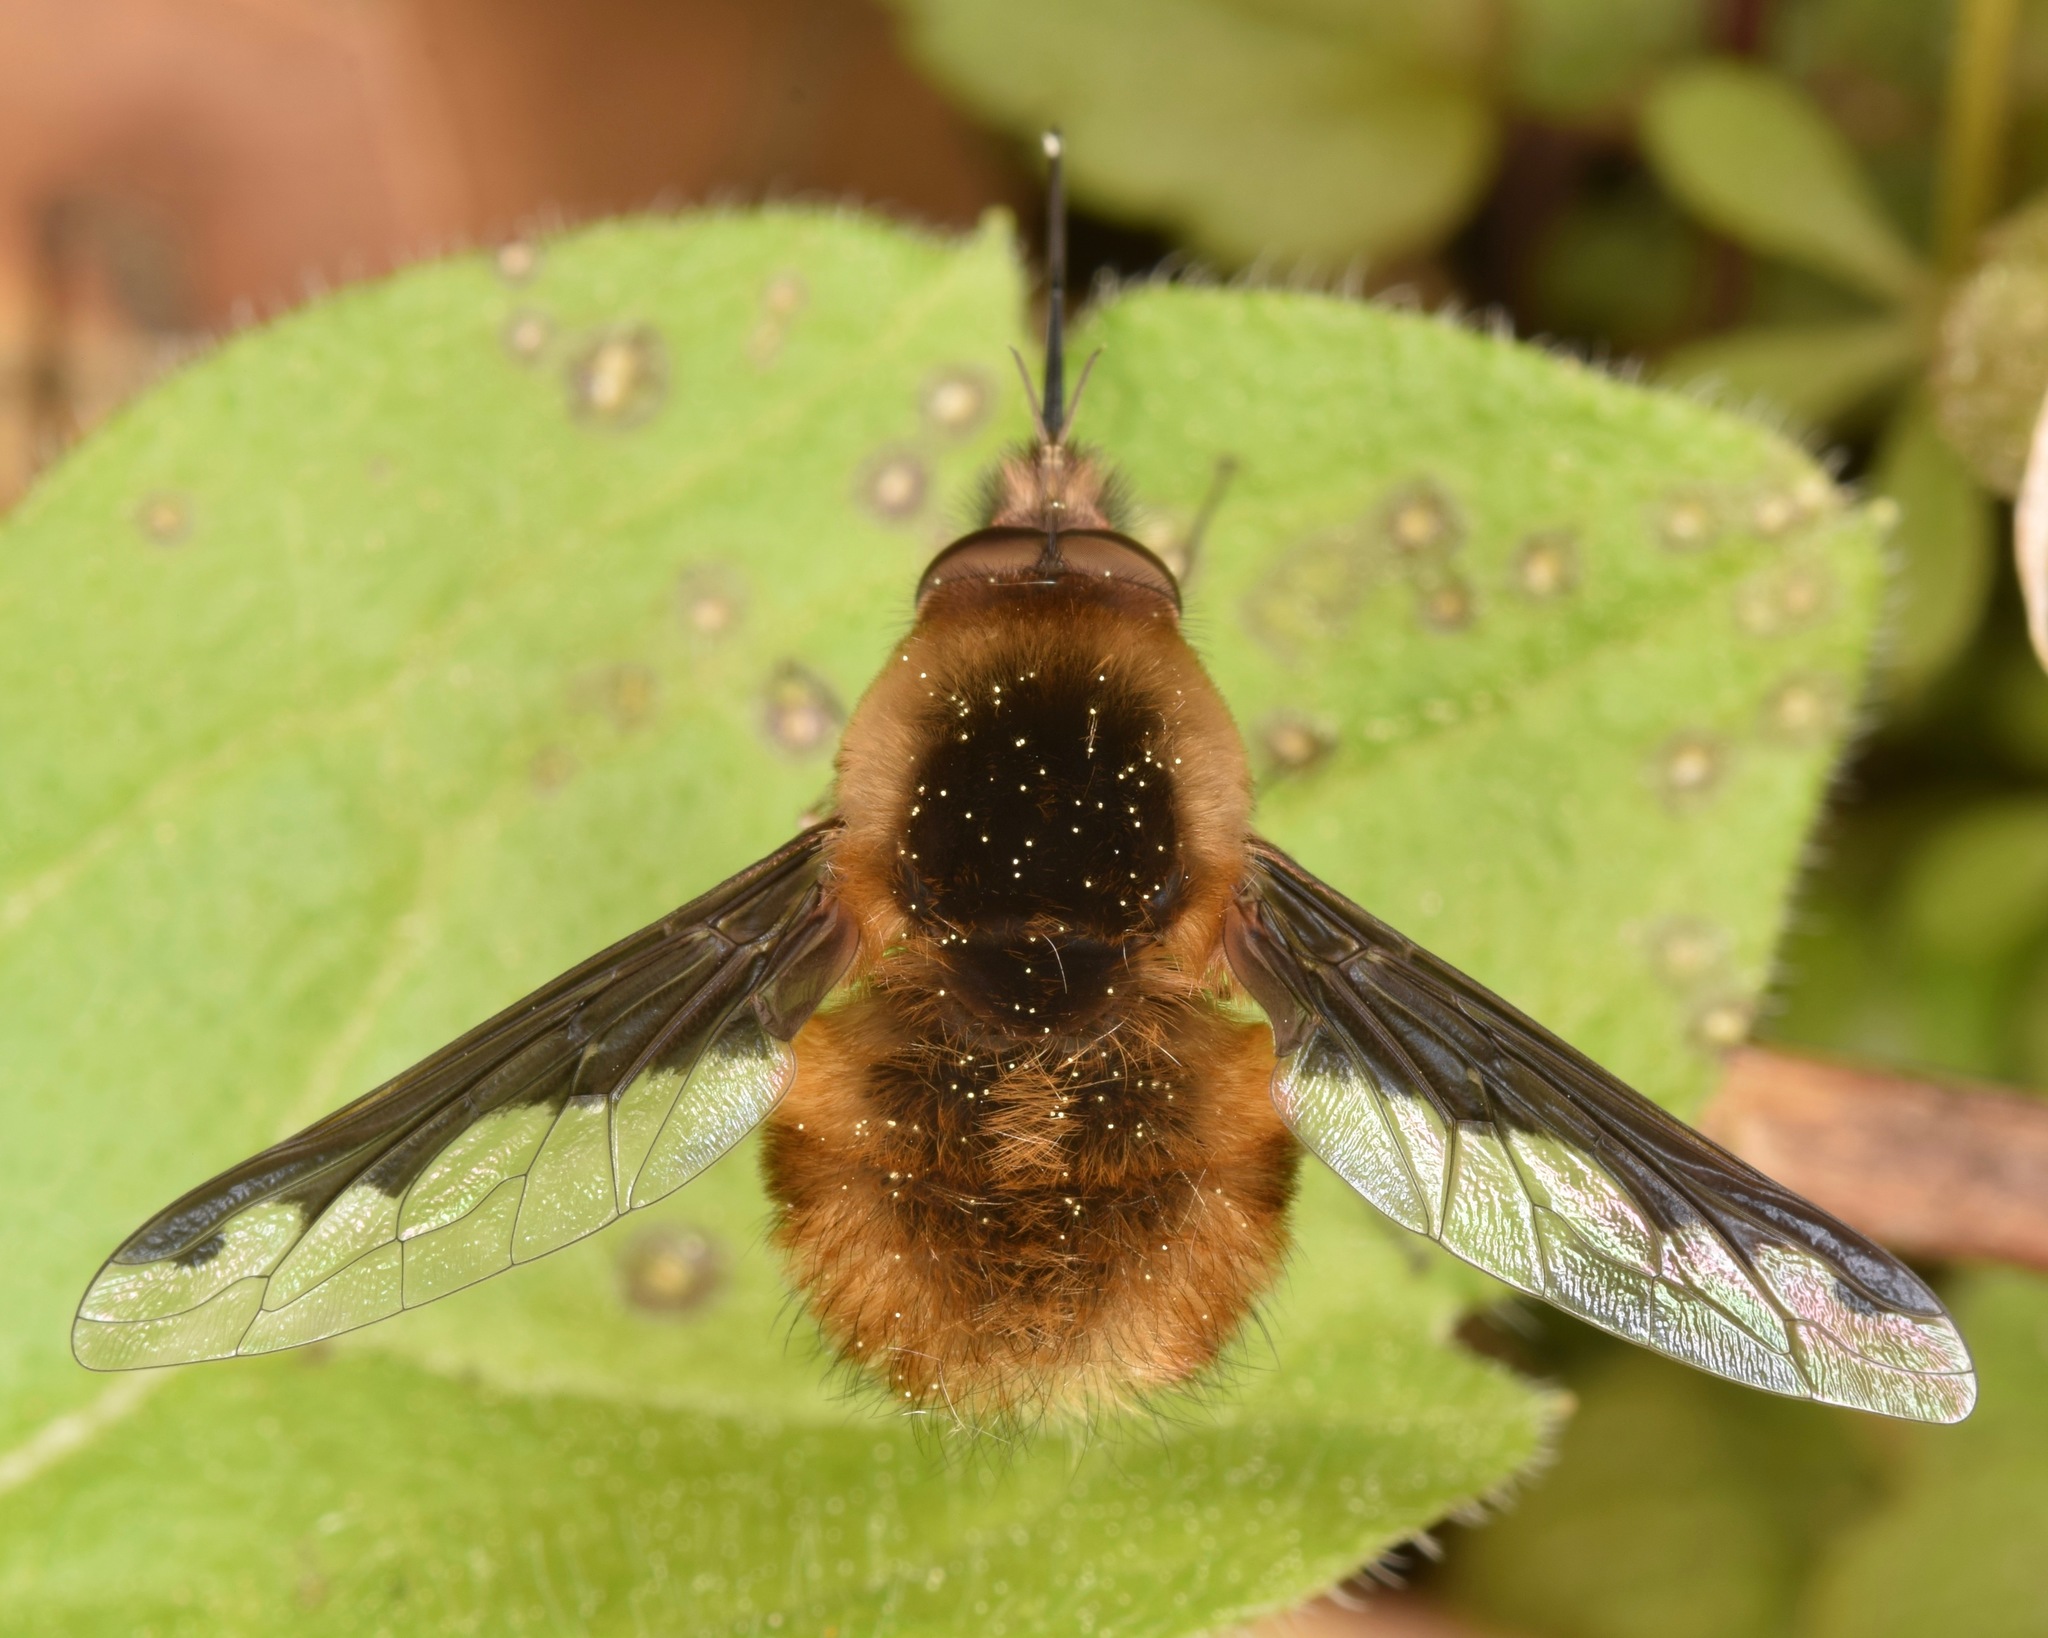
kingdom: Animalia
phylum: Arthropoda
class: Insecta
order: Diptera
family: Bombyliidae
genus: Bombylius
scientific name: Bombylius major
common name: Bee fly
